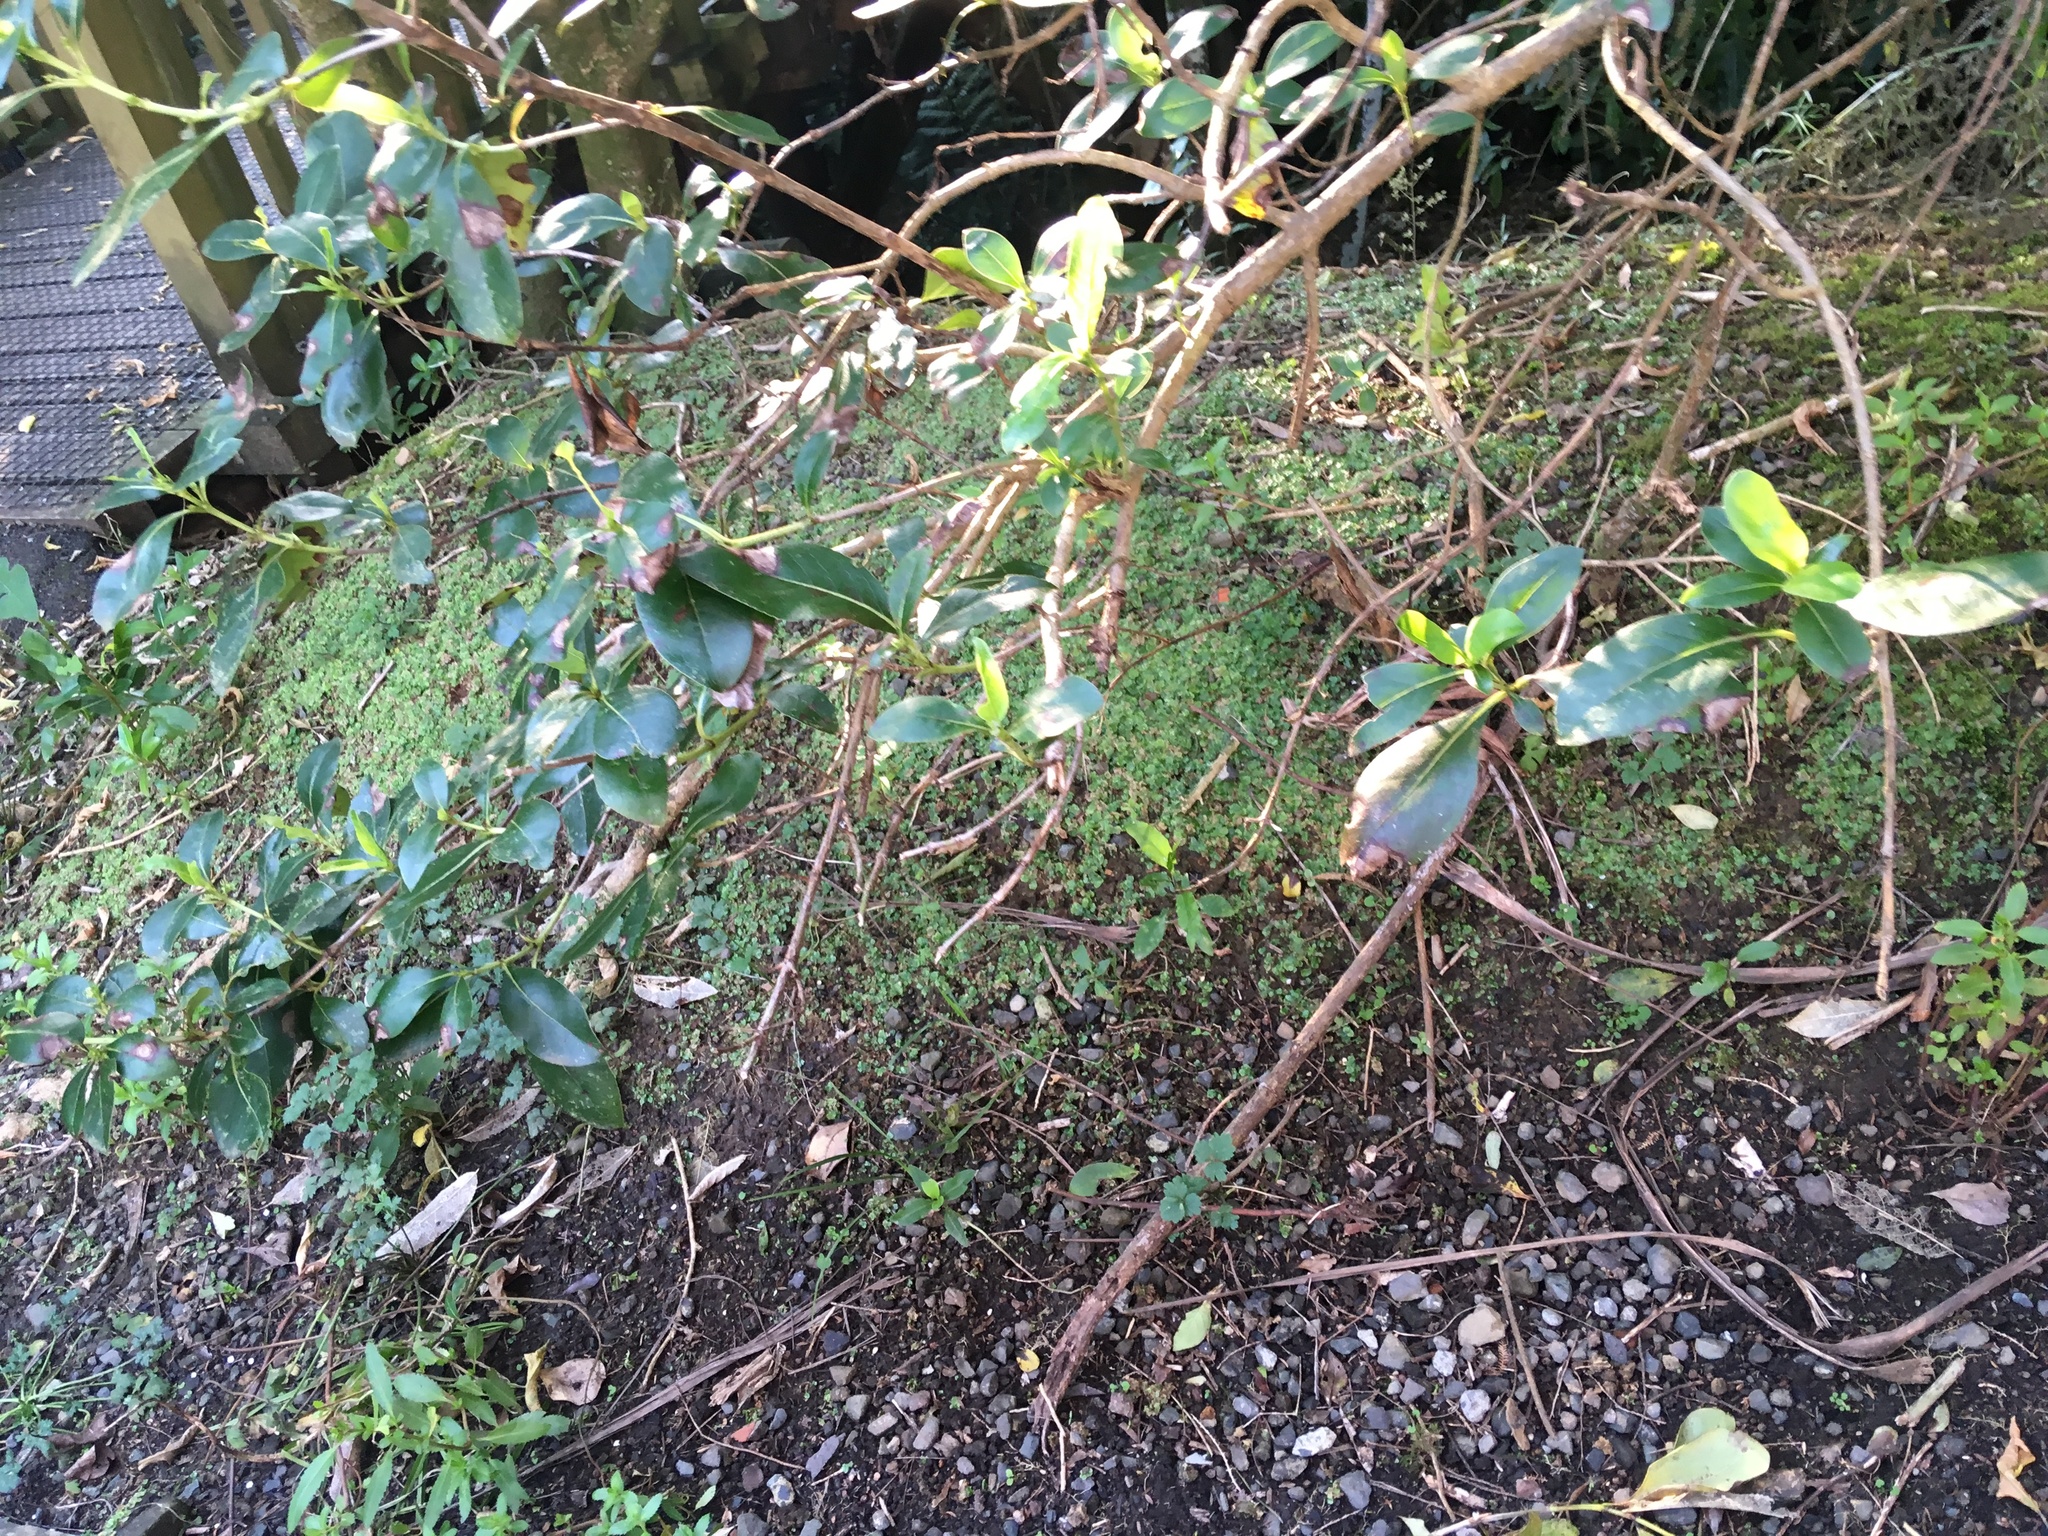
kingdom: Plantae
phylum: Tracheophyta
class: Magnoliopsida
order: Gentianales
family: Rubiaceae
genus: Coprosma
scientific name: Coprosma robusta
